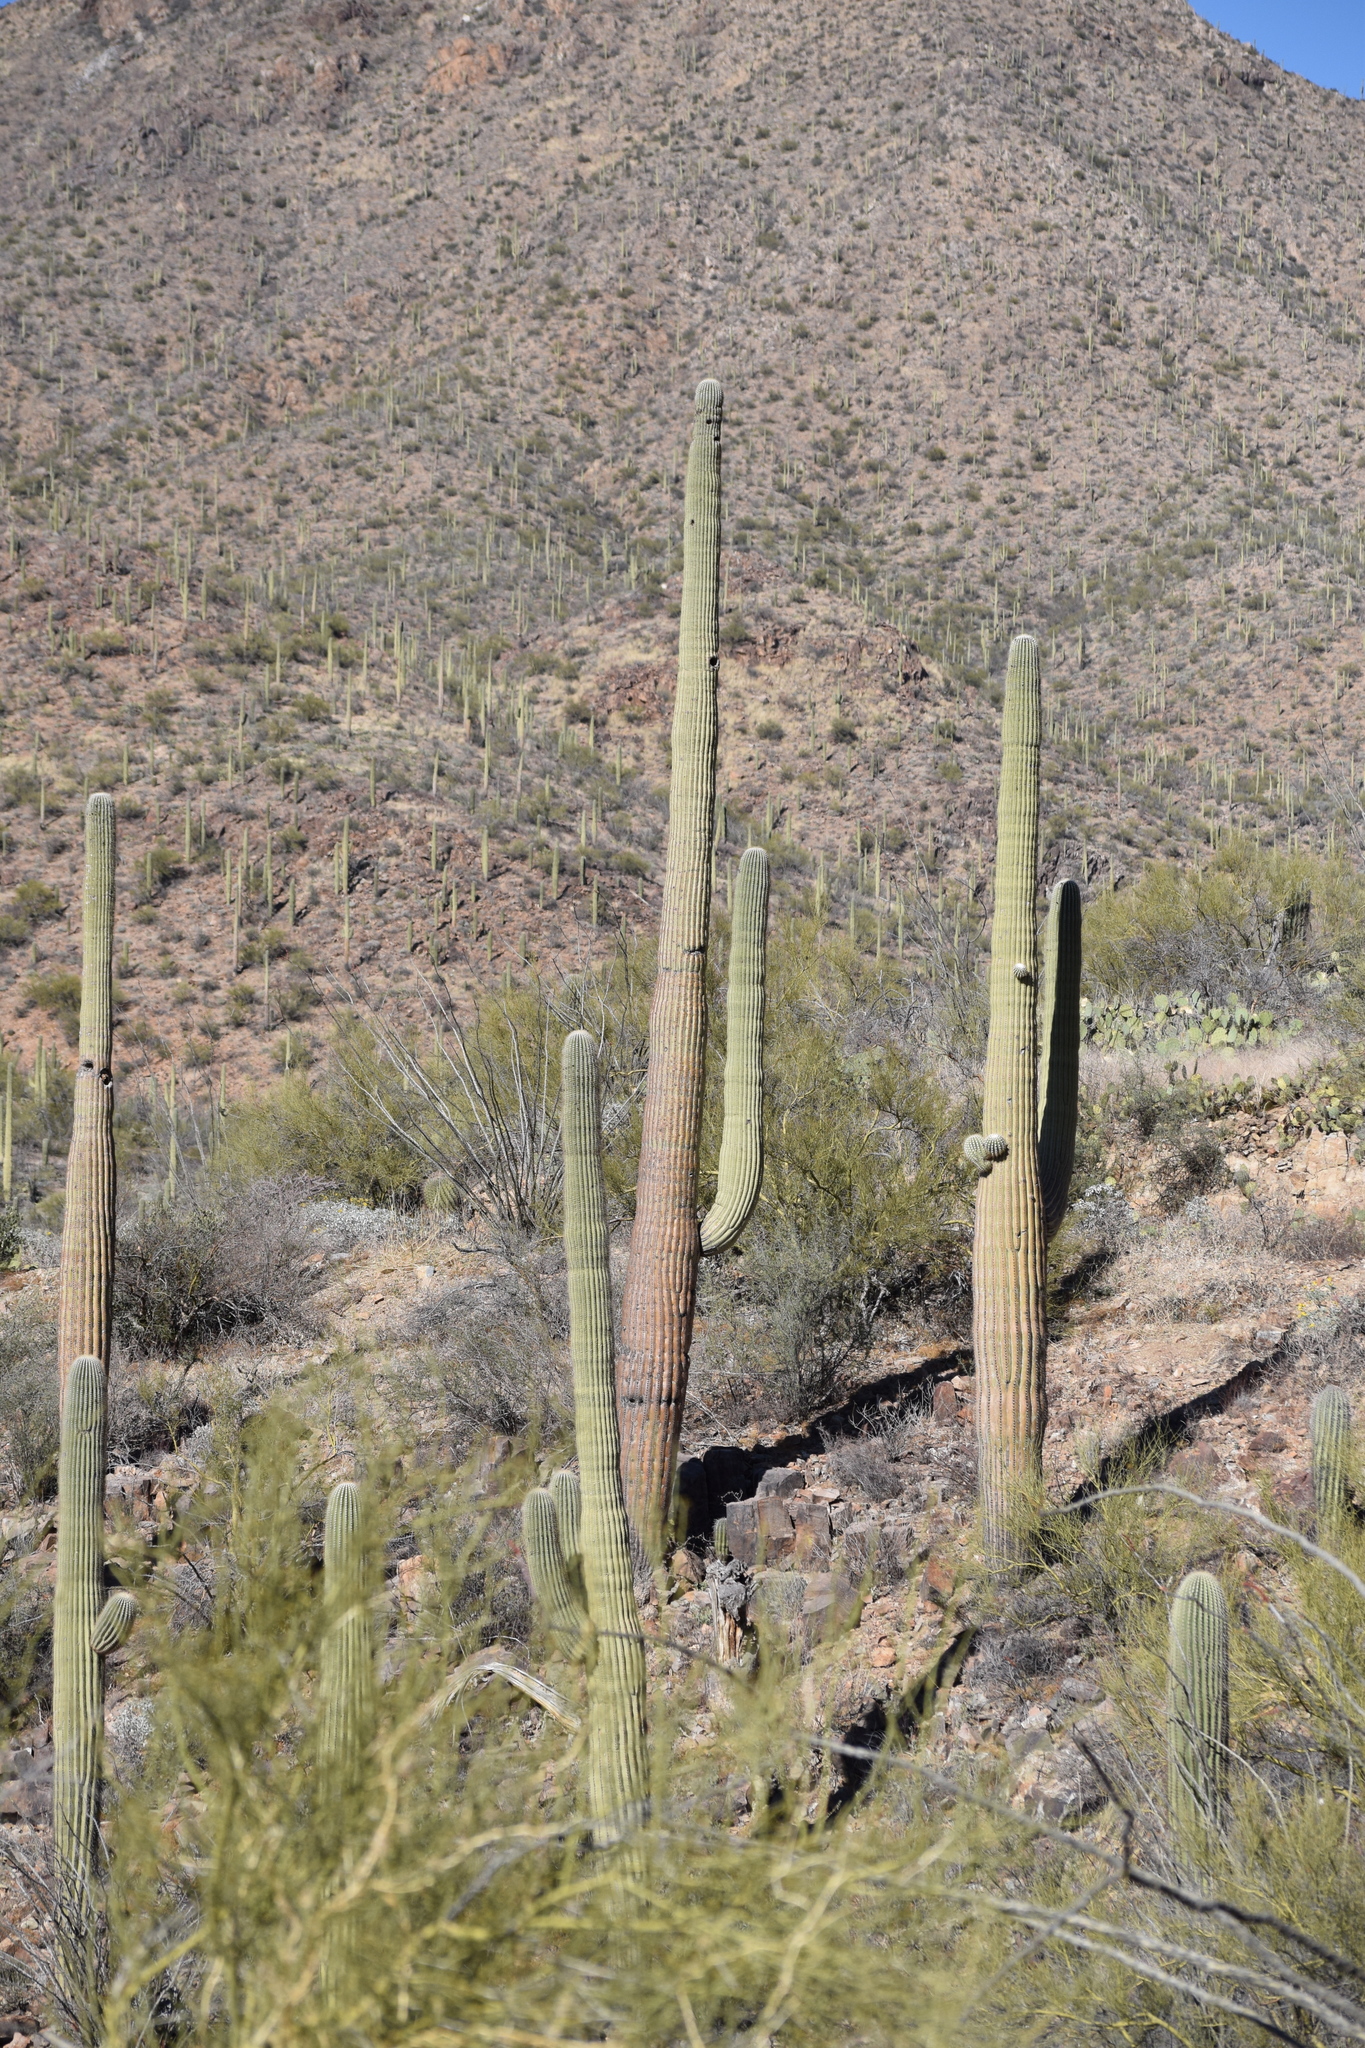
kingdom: Plantae
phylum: Tracheophyta
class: Magnoliopsida
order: Caryophyllales
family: Cactaceae
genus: Carnegiea
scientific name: Carnegiea gigantea
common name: Saguaro
